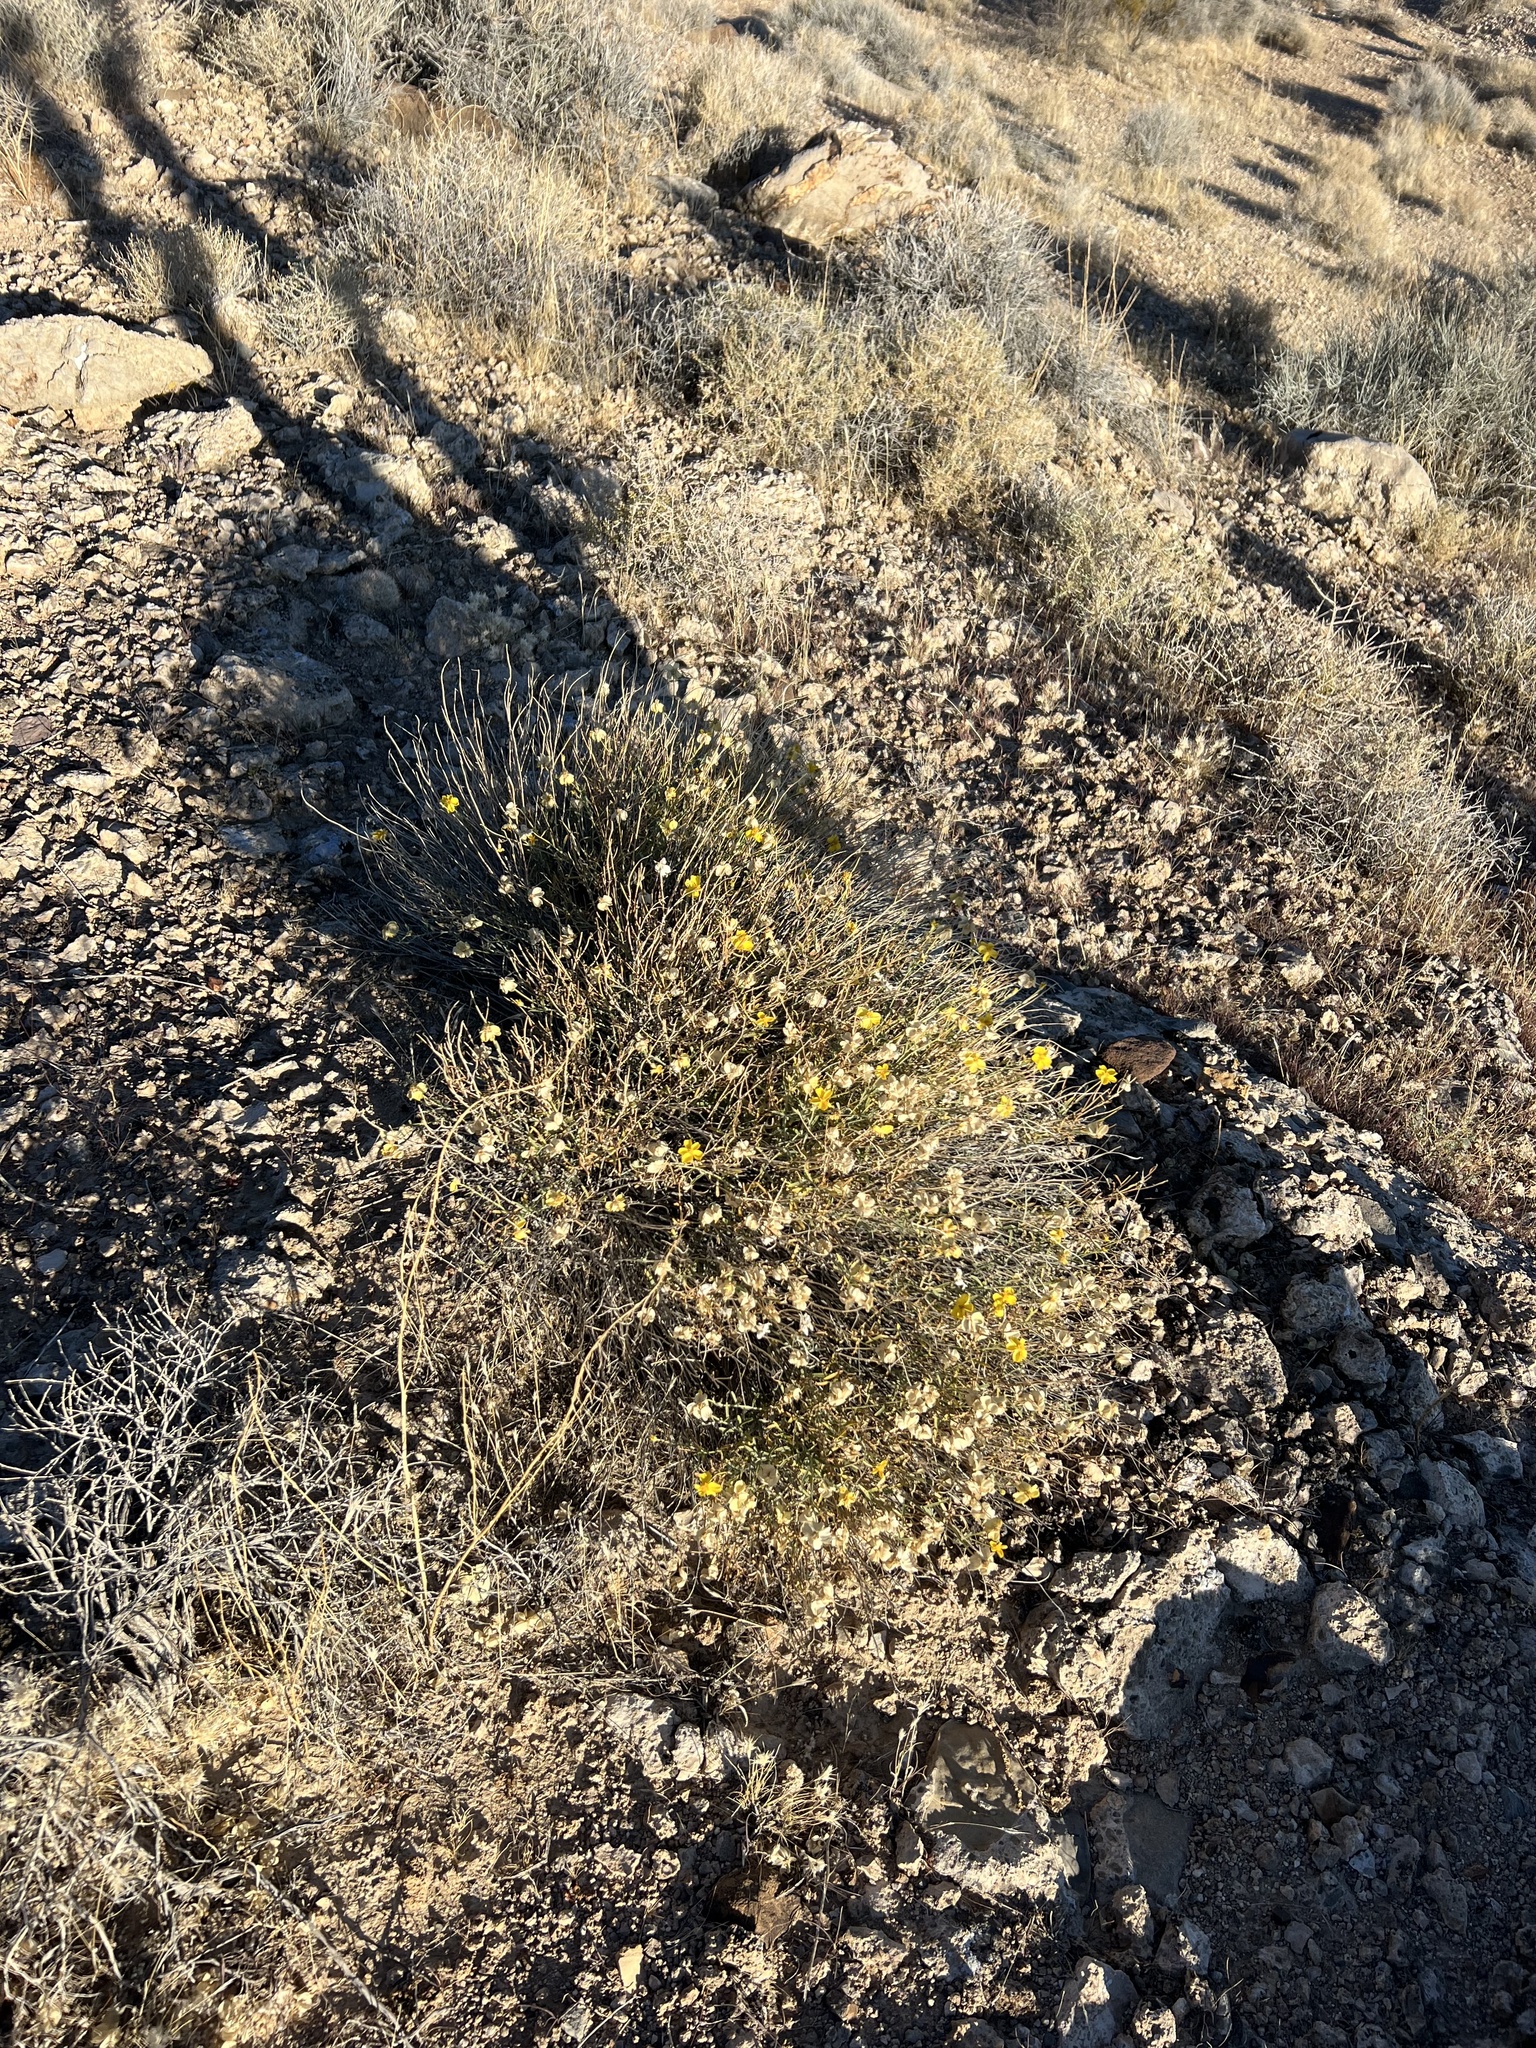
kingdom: Plantae
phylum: Tracheophyta
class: Magnoliopsida
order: Asterales
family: Asteraceae
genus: Psilostrophe
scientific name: Psilostrophe cooperi
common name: White-stem paper-flower
